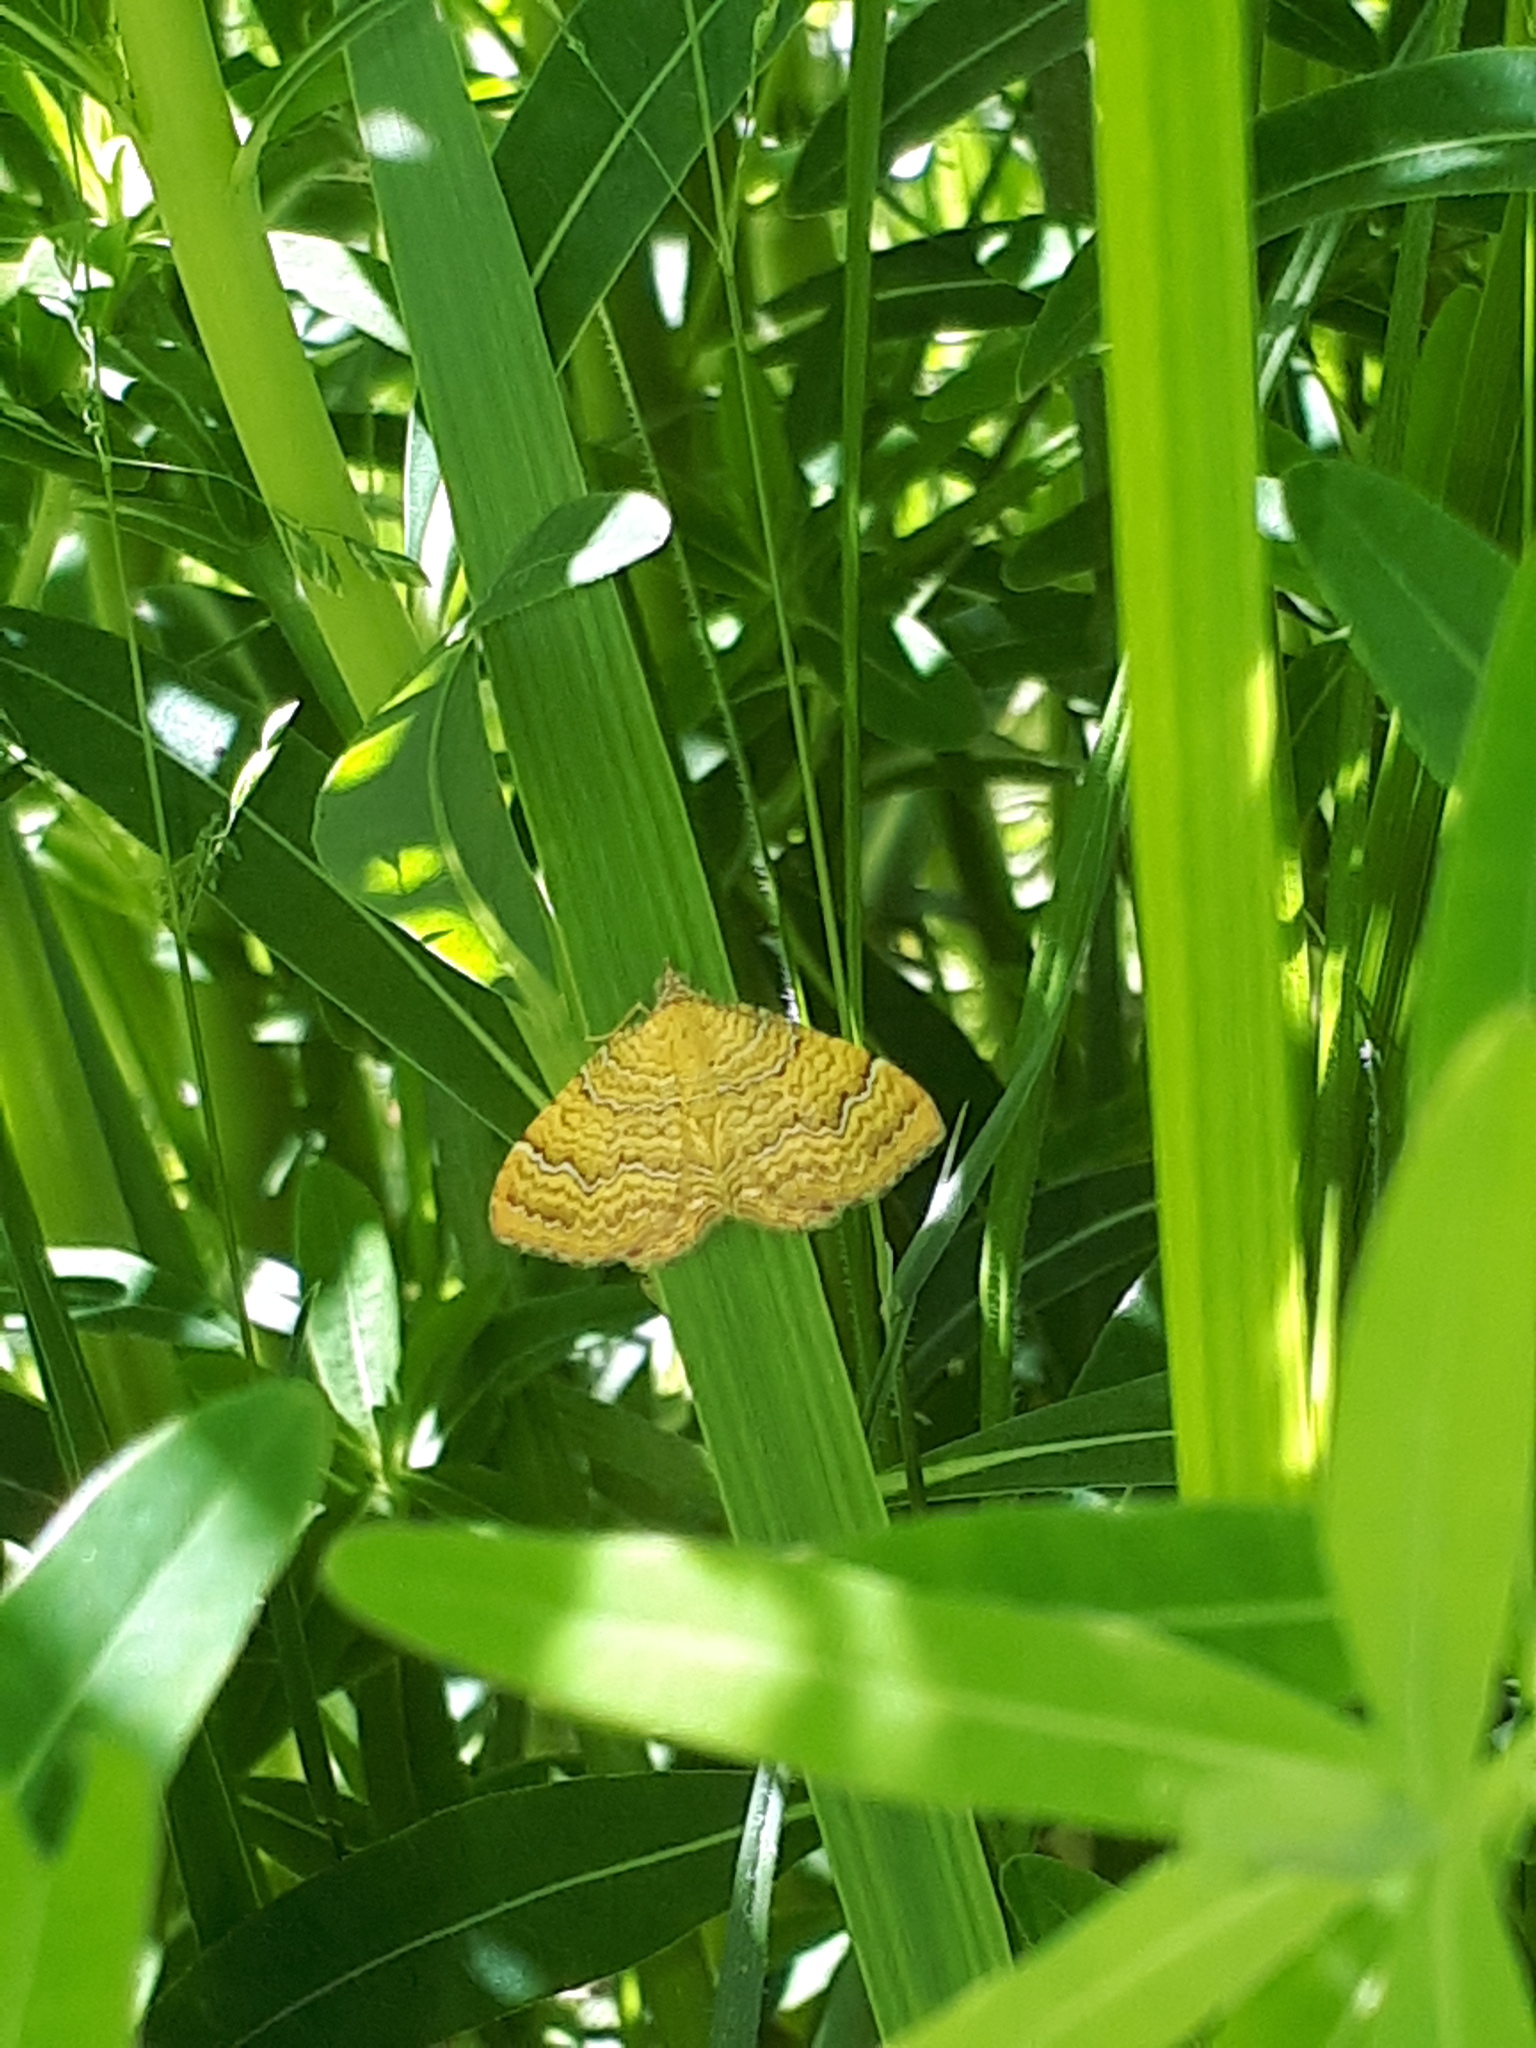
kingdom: Animalia
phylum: Arthropoda
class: Insecta
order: Lepidoptera
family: Geometridae
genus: Camptogramma
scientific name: Camptogramma bilineata
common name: Yellow shell
